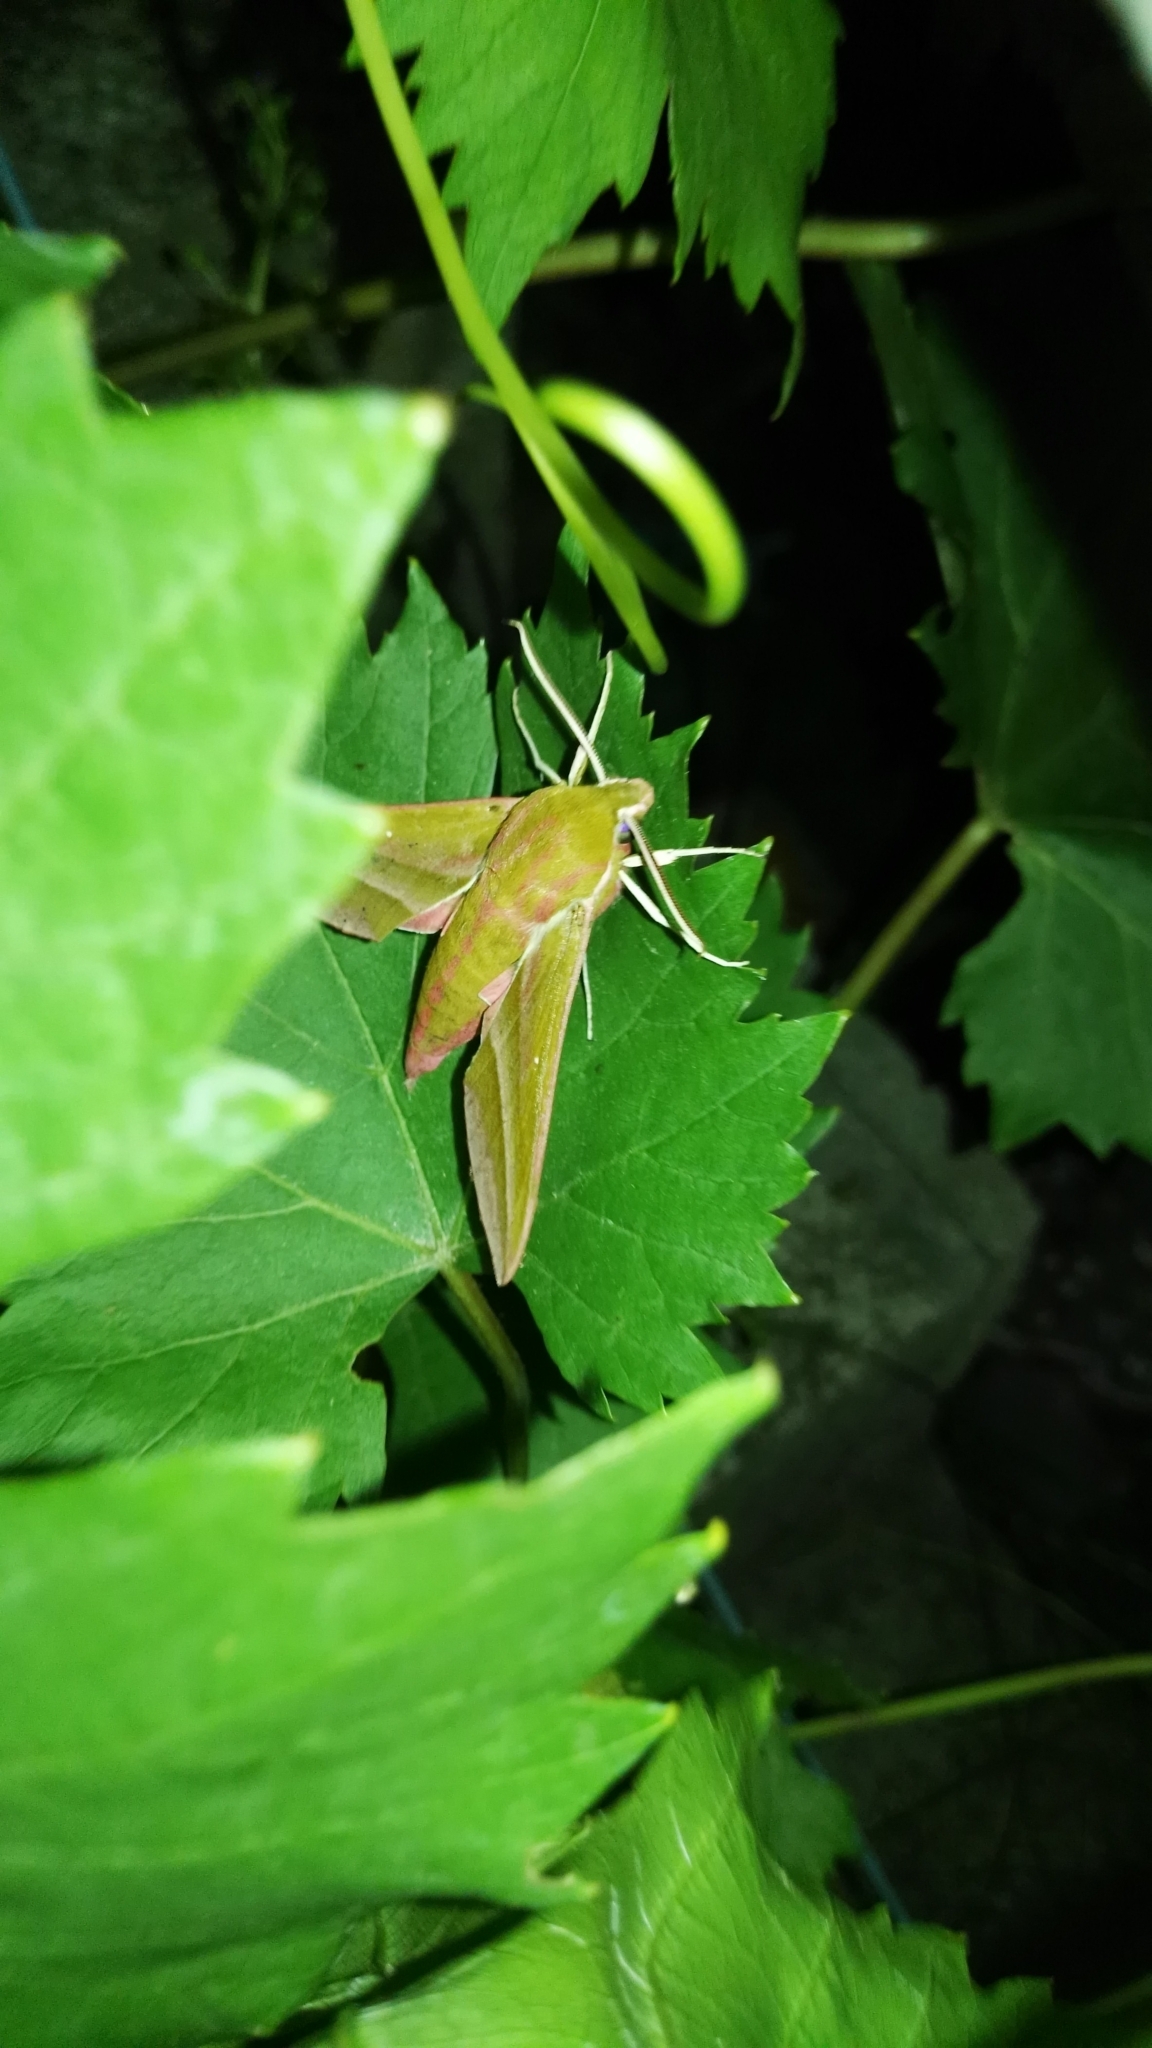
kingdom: Animalia
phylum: Arthropoda
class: Insecta
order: Lepidoptera
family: Sphingidae
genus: Deilephila
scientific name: Deilephila elpenor
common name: Elephant hawk-moth
